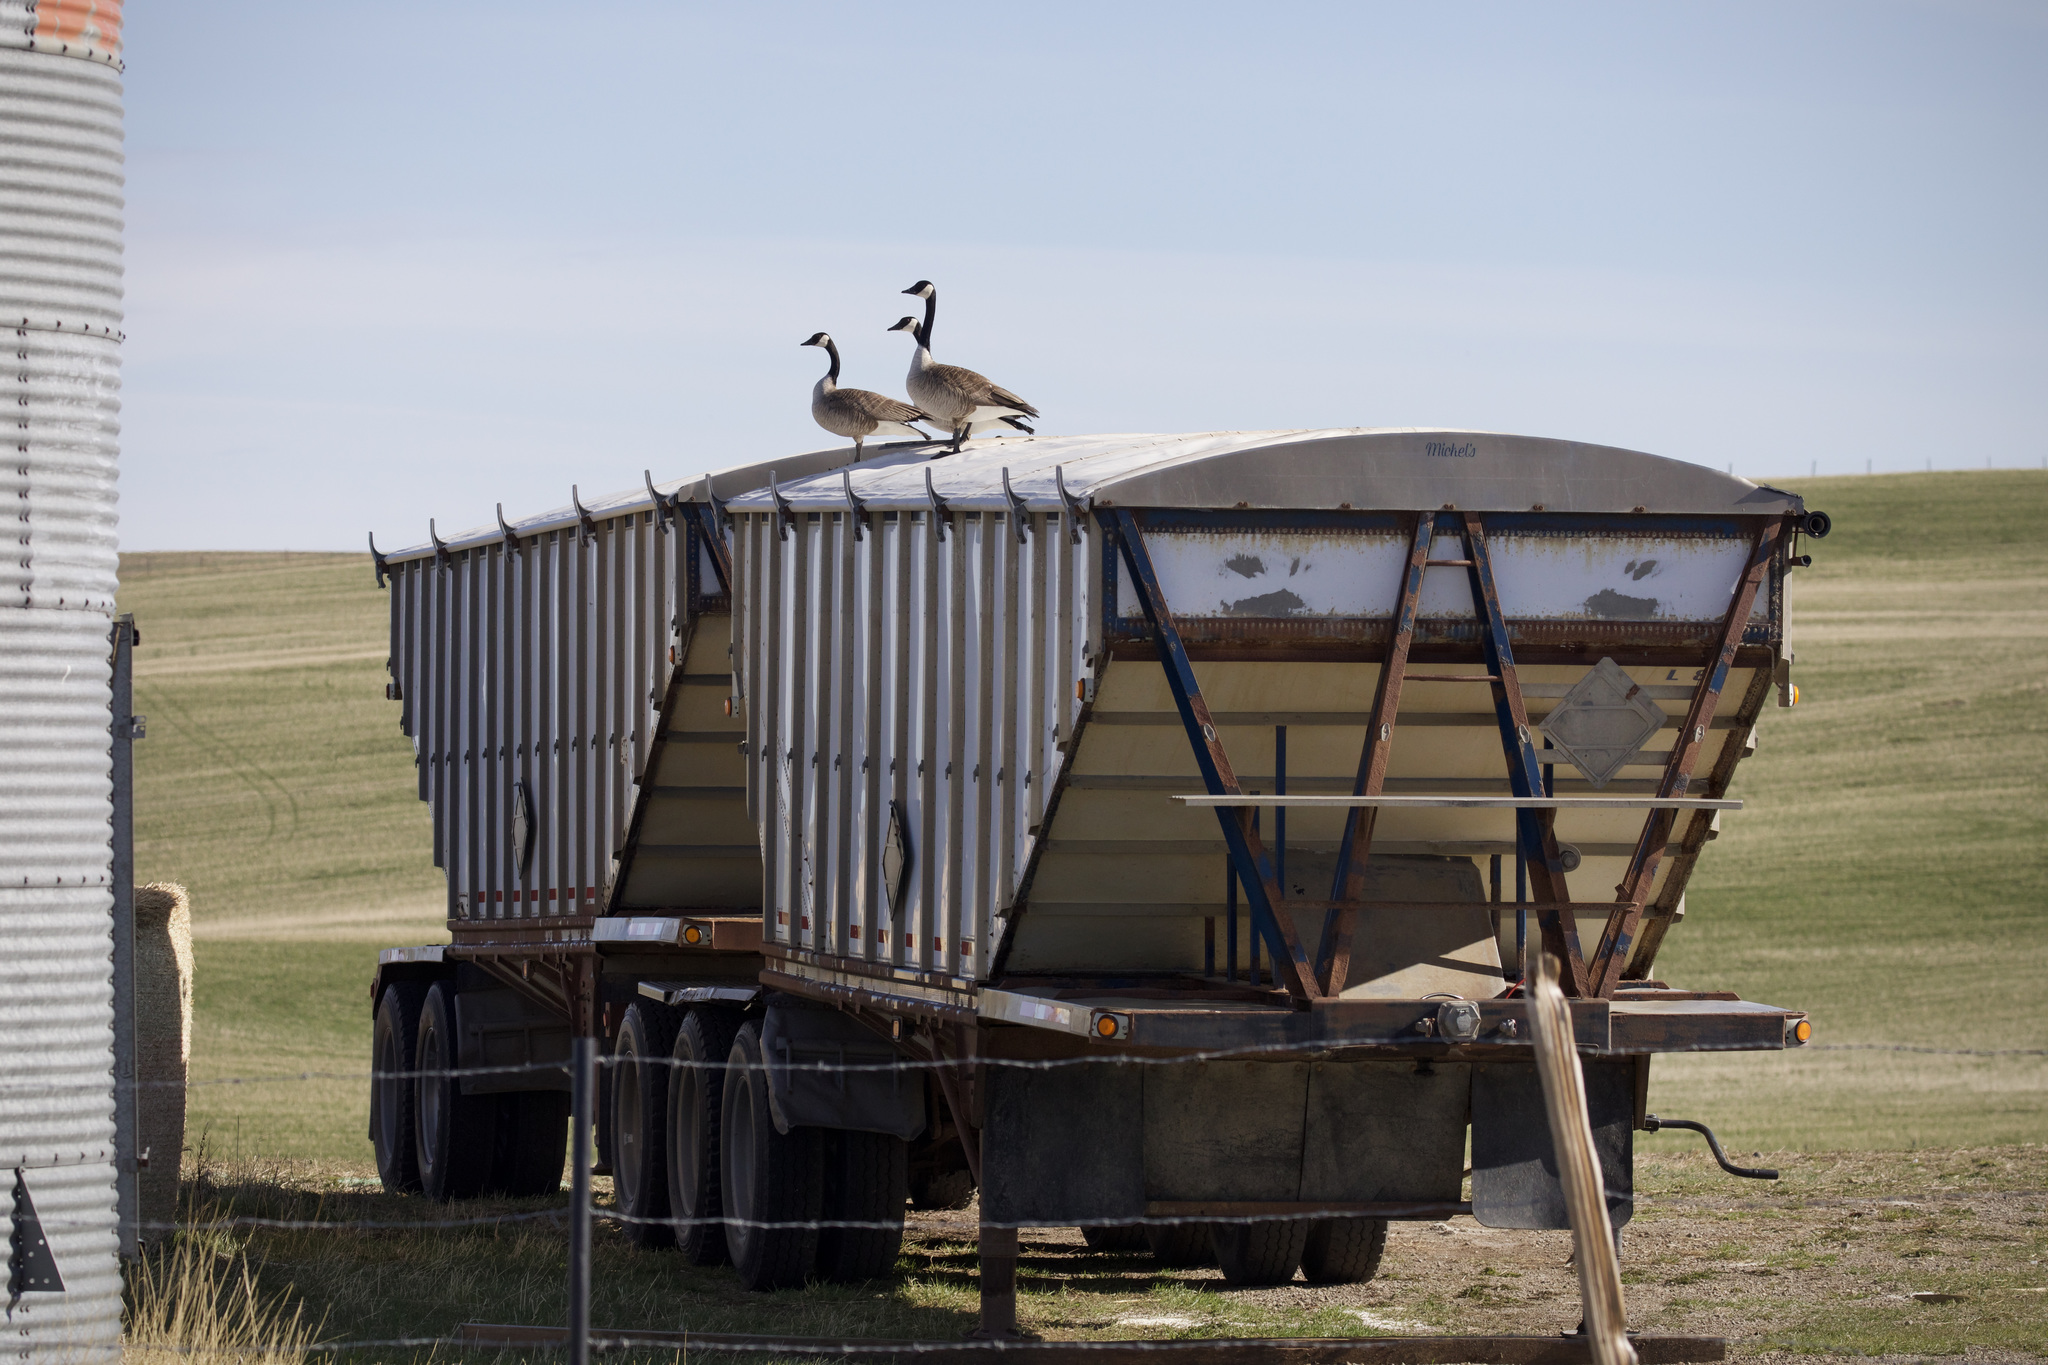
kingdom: Animalia
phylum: Chordata
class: Aves
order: Anseriformes
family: Anatidae
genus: Branta
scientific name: Branta canadensis
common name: Canada goose
